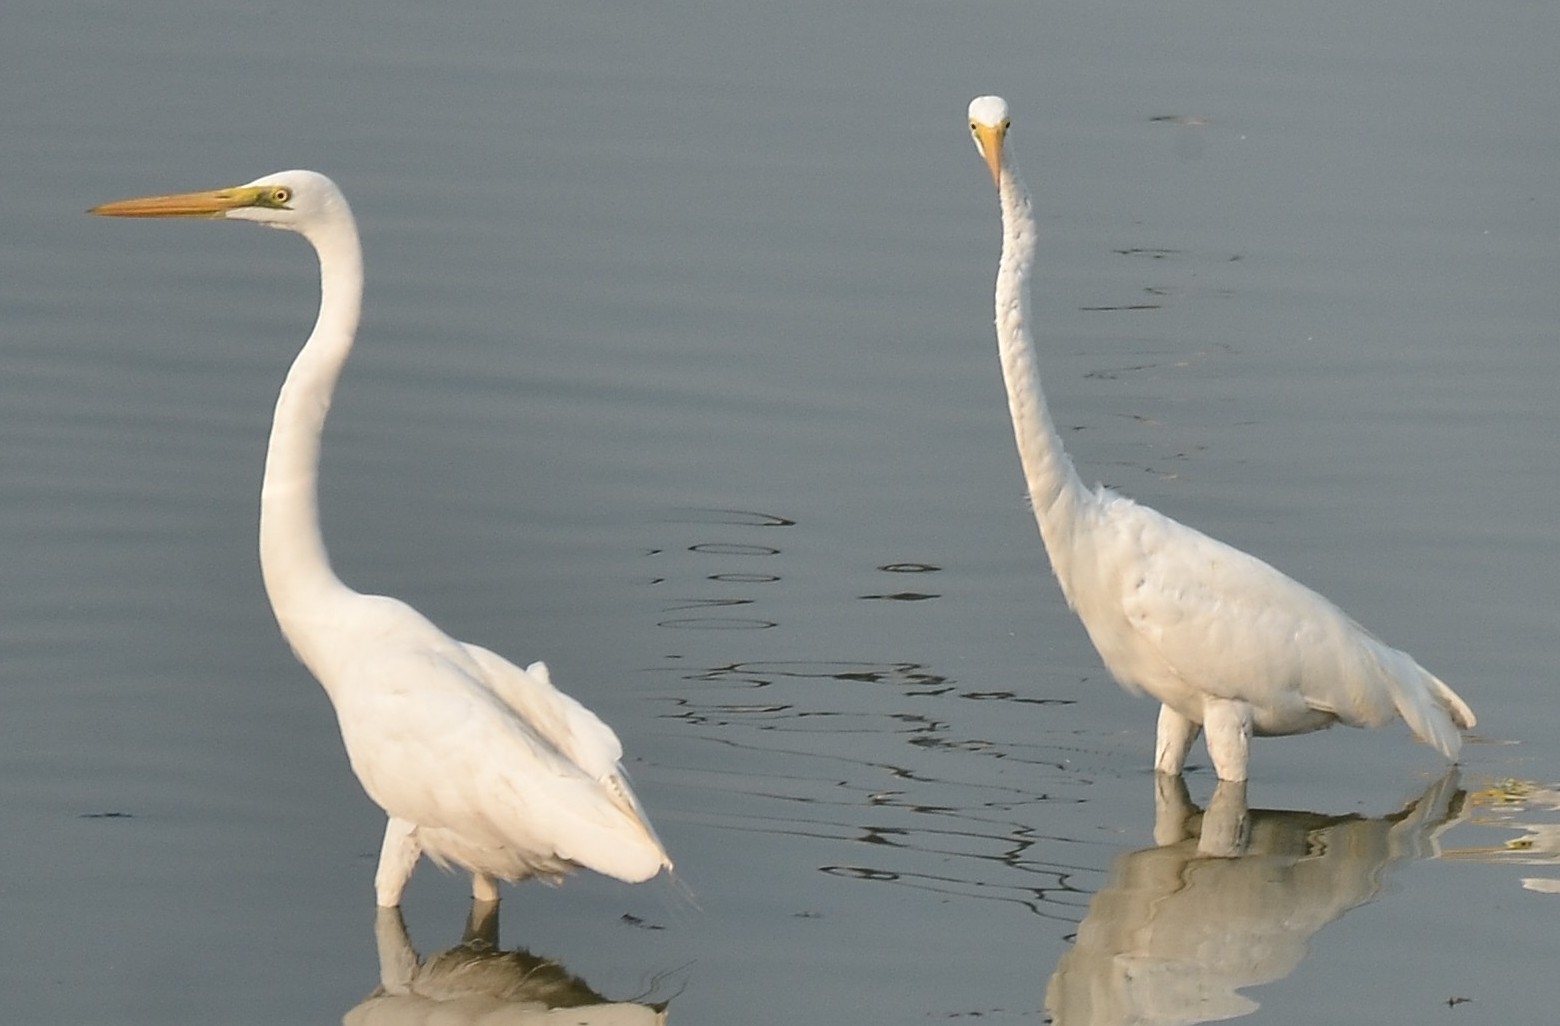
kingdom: Animalia
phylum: Chordata
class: Aves
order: Pelecaniformes
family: Ardeidae
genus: Ardea
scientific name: Ardea alba
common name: Great egret
